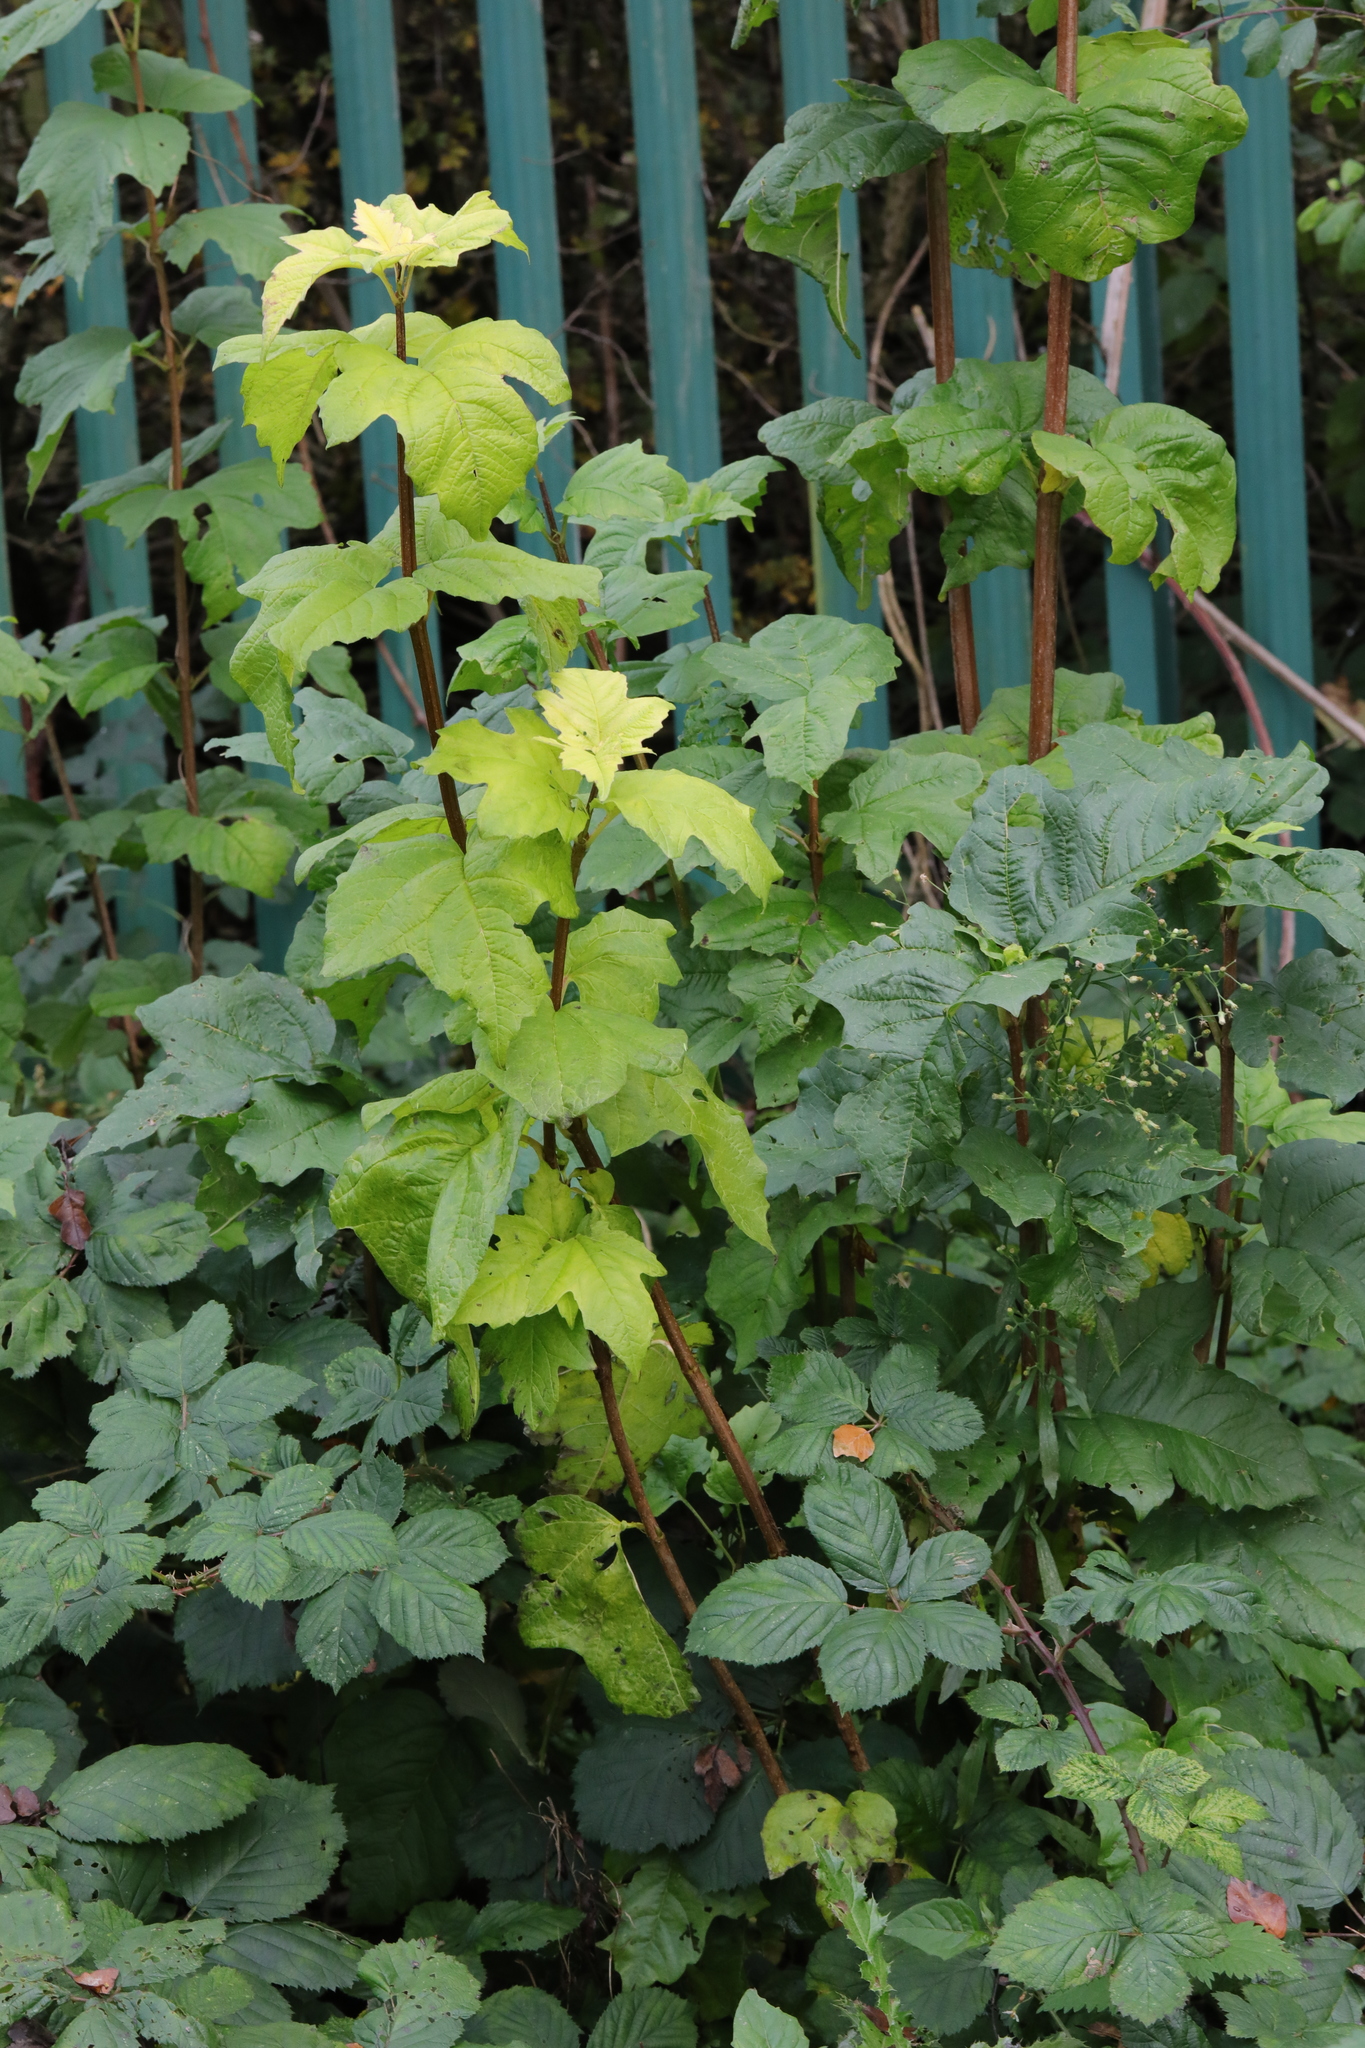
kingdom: Plantae
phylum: Tracheophyta
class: Magnoliopsida
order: Dipsacales
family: Viburnaceae
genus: Viburnum
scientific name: Viburnum opulus
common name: Guelder-rose
